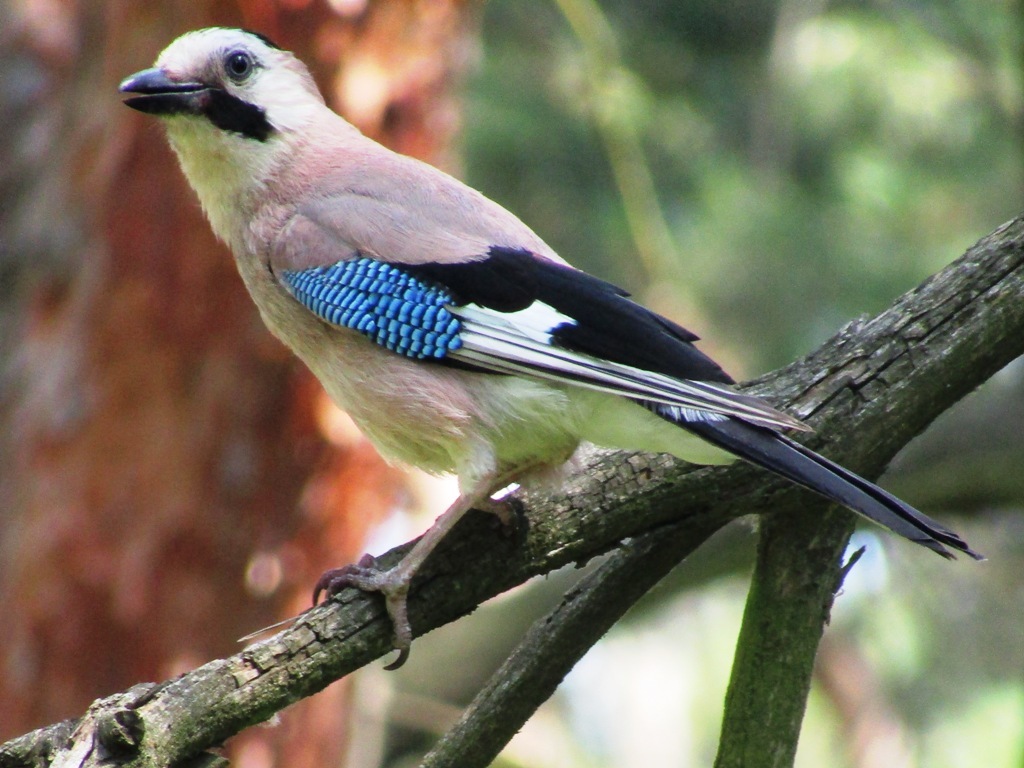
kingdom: Animalia
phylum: Chordata
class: Aves
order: Passeriformes
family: Corvidae
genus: Garrulus
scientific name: Garrulus glandarius
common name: Eurasian jay
